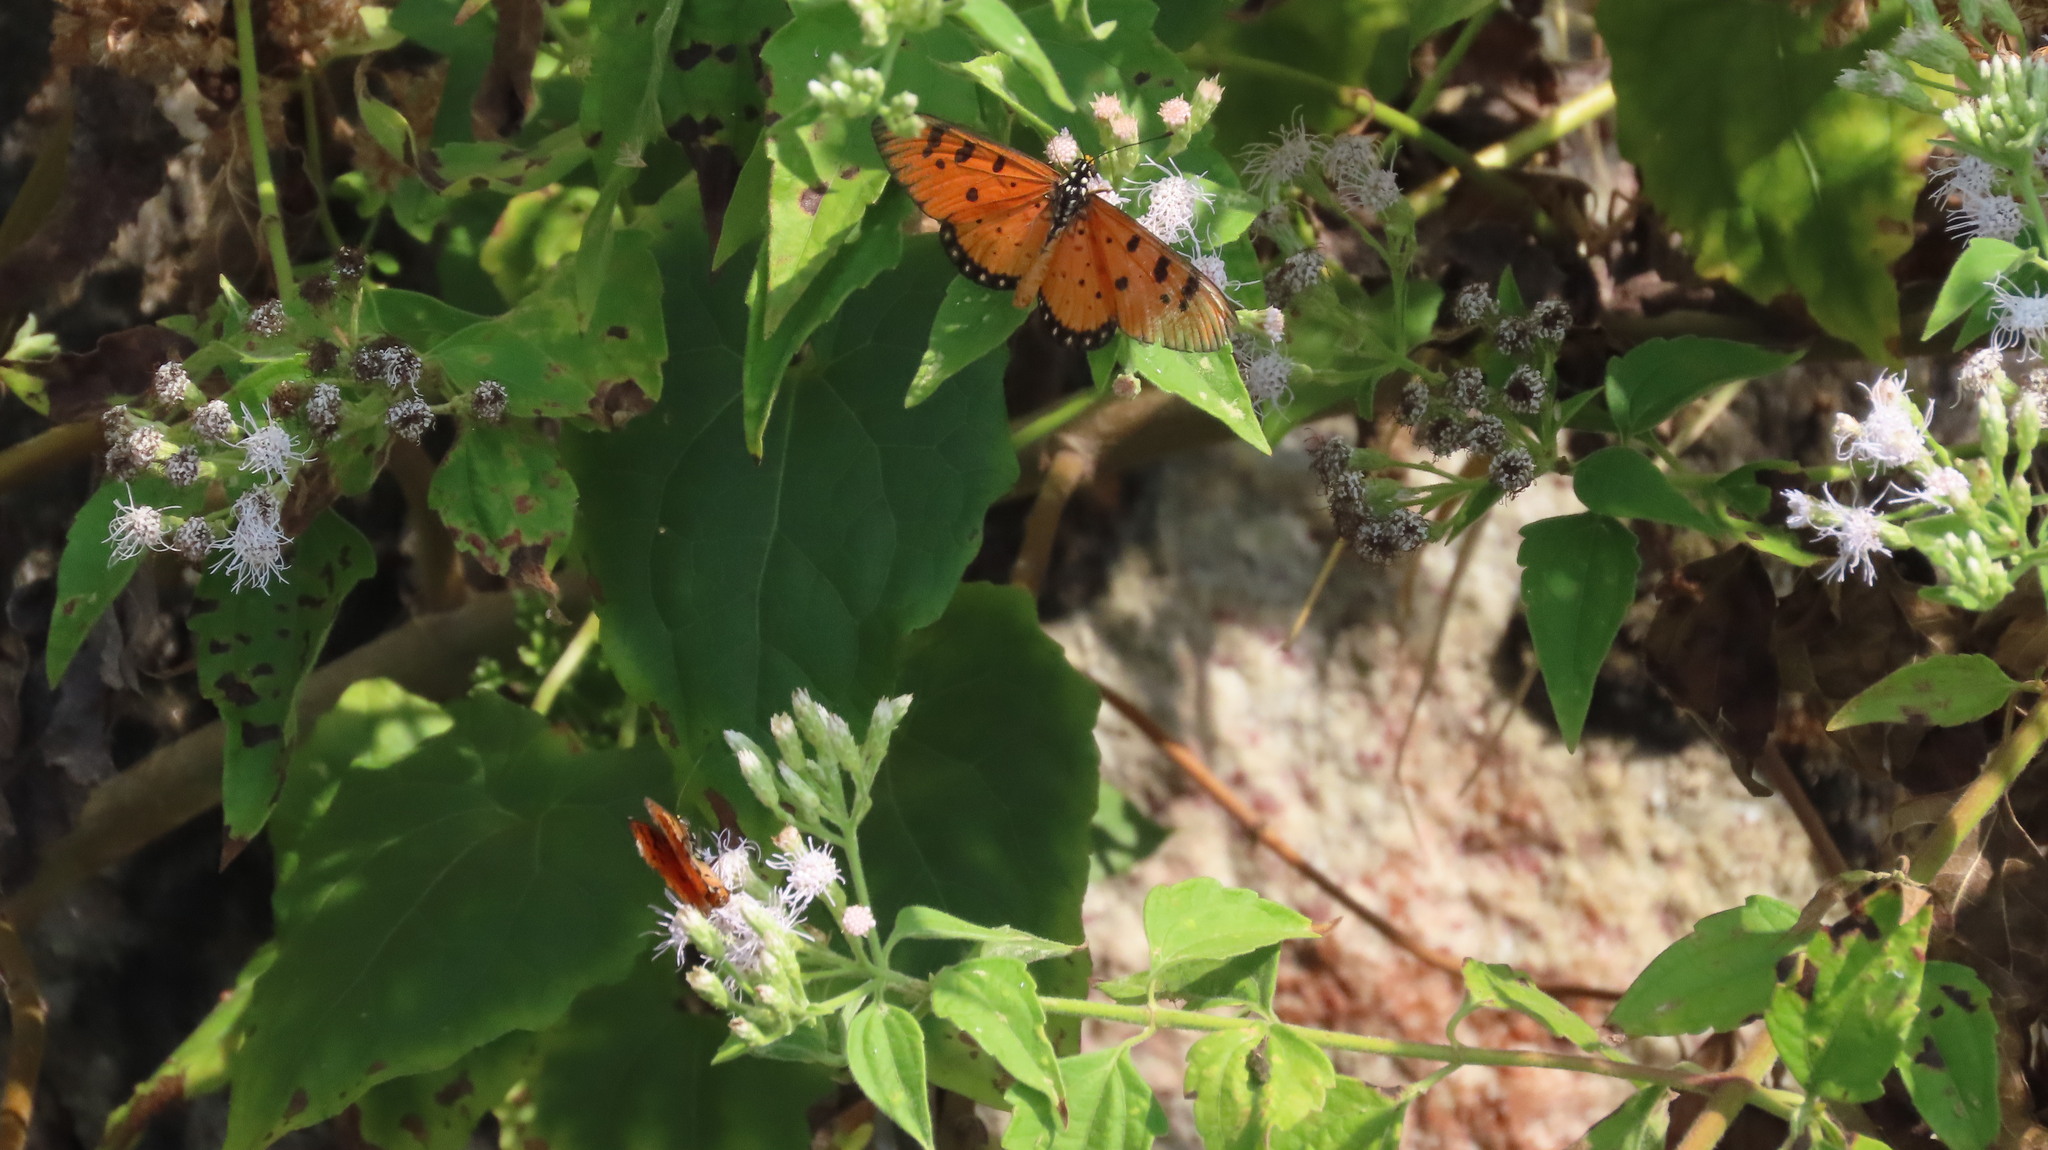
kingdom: Animalia
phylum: Arthropoda
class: Insecta
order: Lepidoptera
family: Nymphalidae
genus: Acraea
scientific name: Acraea terpsicore
